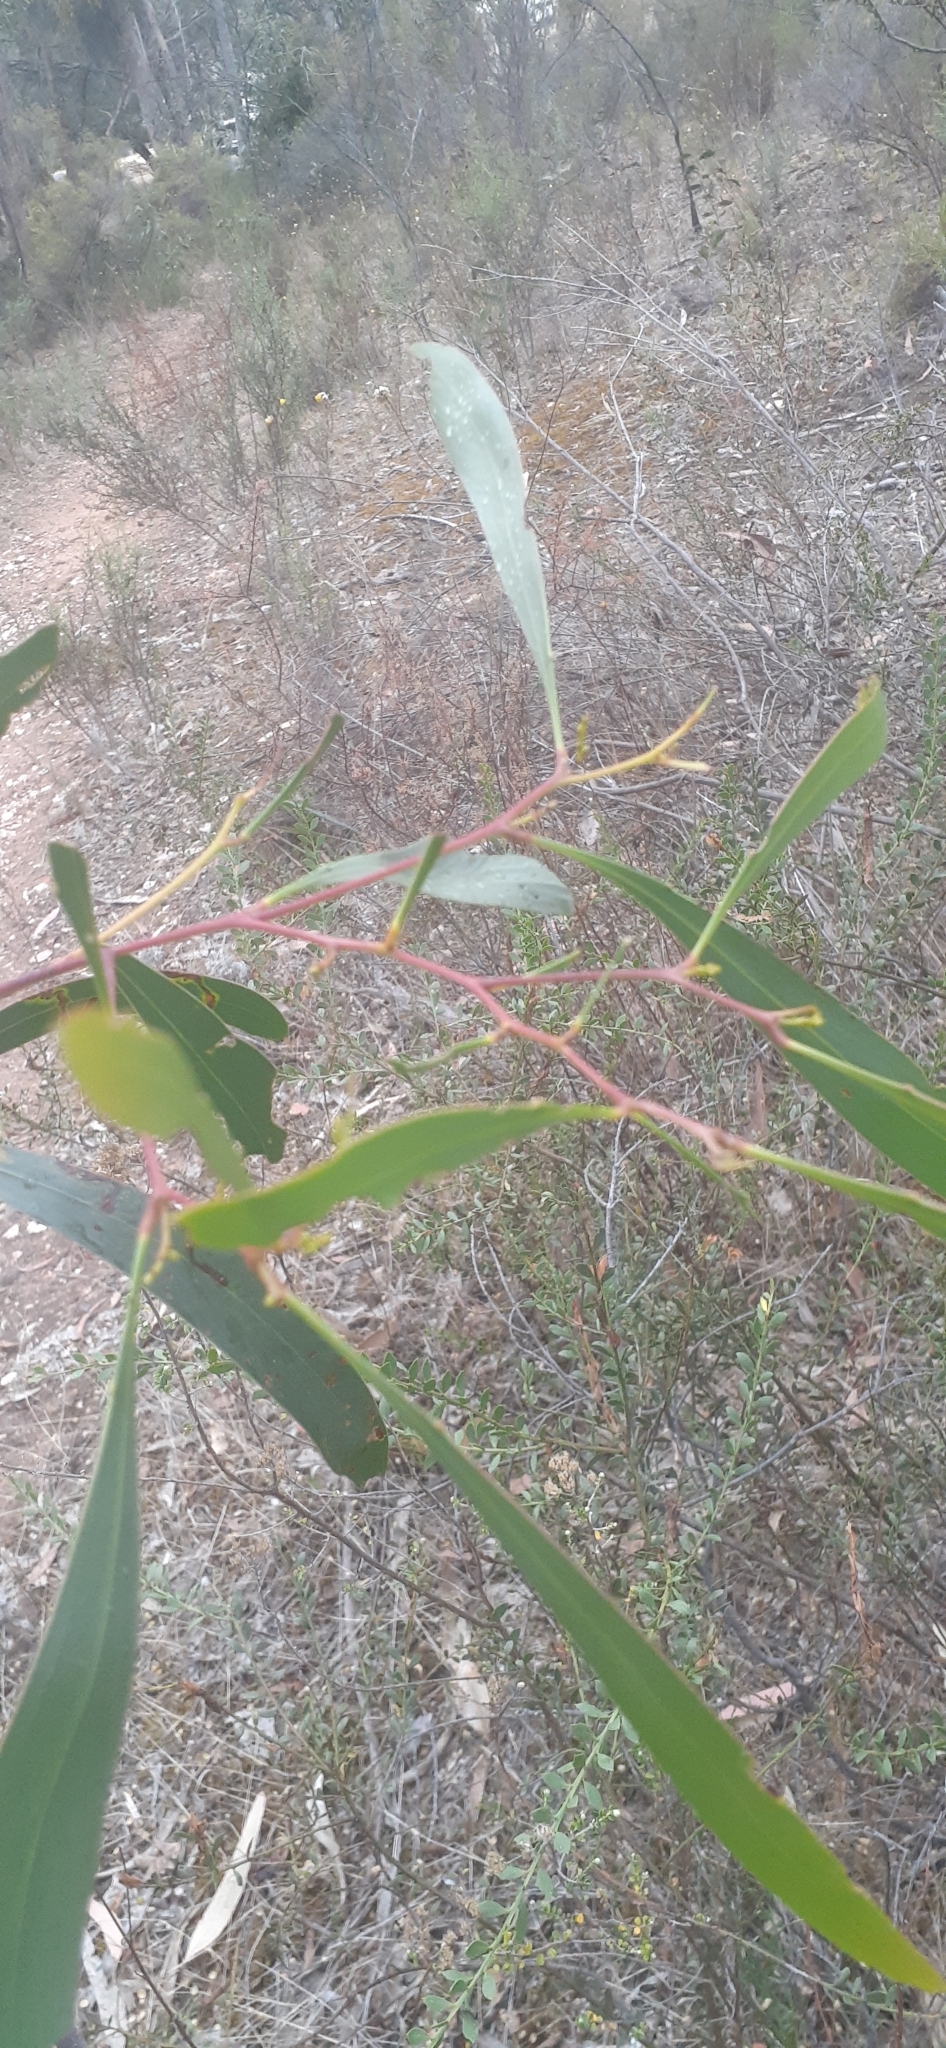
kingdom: Plantae
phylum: Tracheophyta
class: Magnoliopsida
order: Fabales
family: Fabaceae
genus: Acacia
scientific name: Acacia pycnantha
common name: Golden wattle
